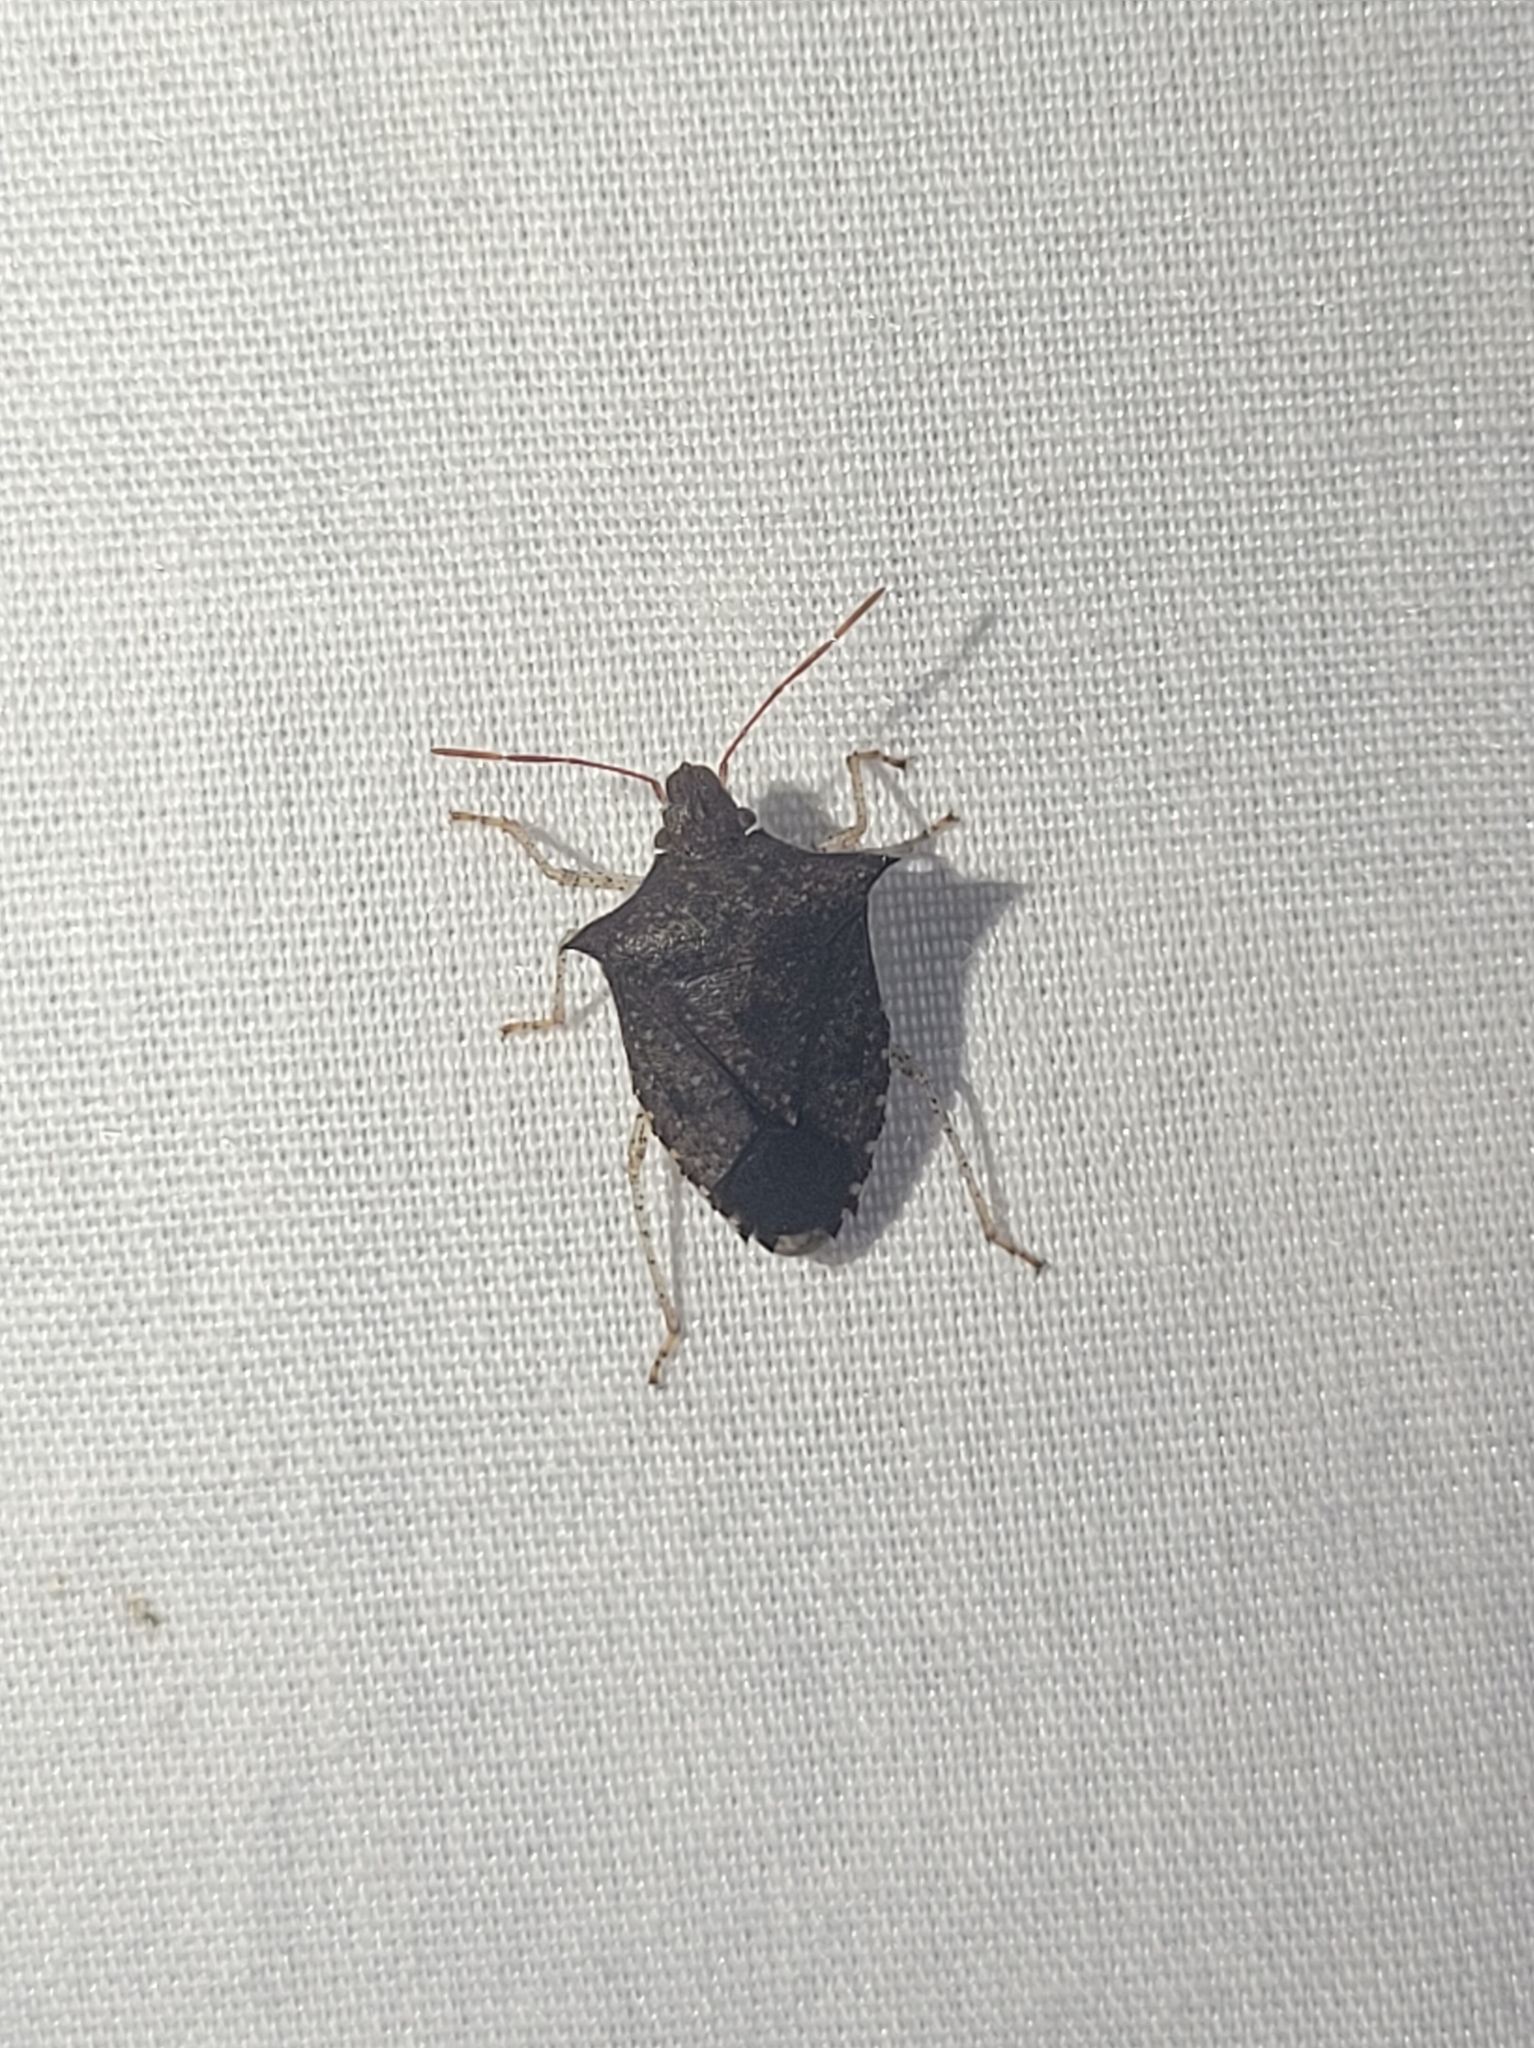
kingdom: Animalia
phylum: Arthropoda
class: Insecta
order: Hemiptera
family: Pentatomidae
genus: Euschistus
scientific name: Euschistus tristigmus
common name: Dusky stink bug
